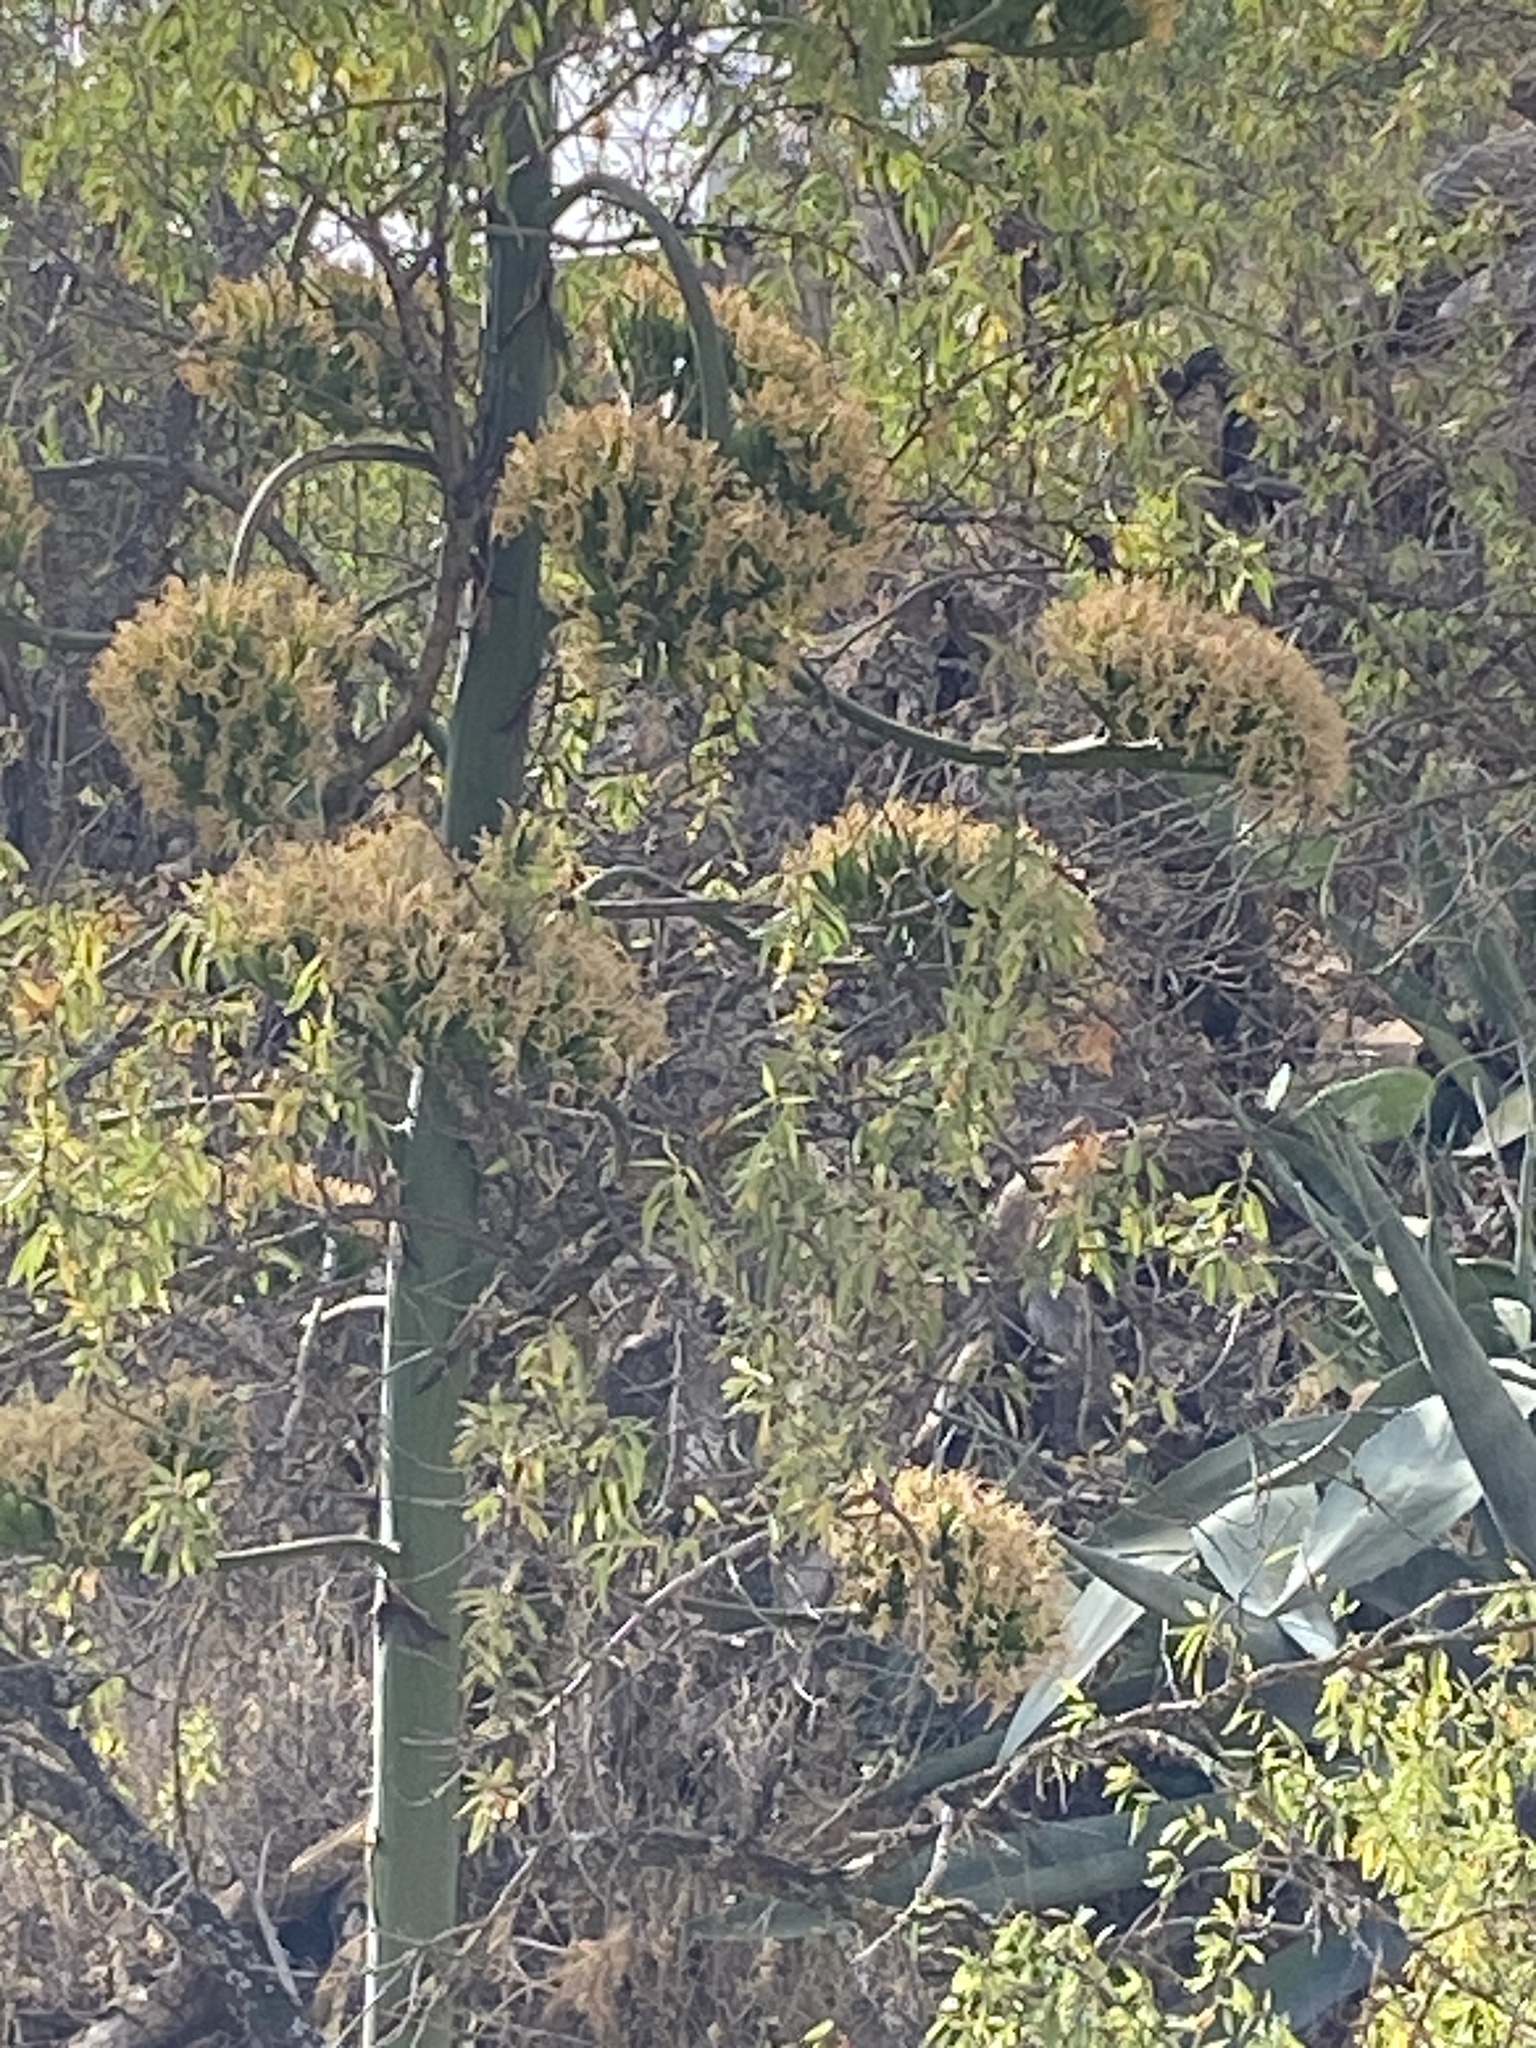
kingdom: Plantae
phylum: Tracheophyta
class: Liliopsida
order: Asparagales
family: Asparagaceae
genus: Agave
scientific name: Agave americana
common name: Centuryplant
